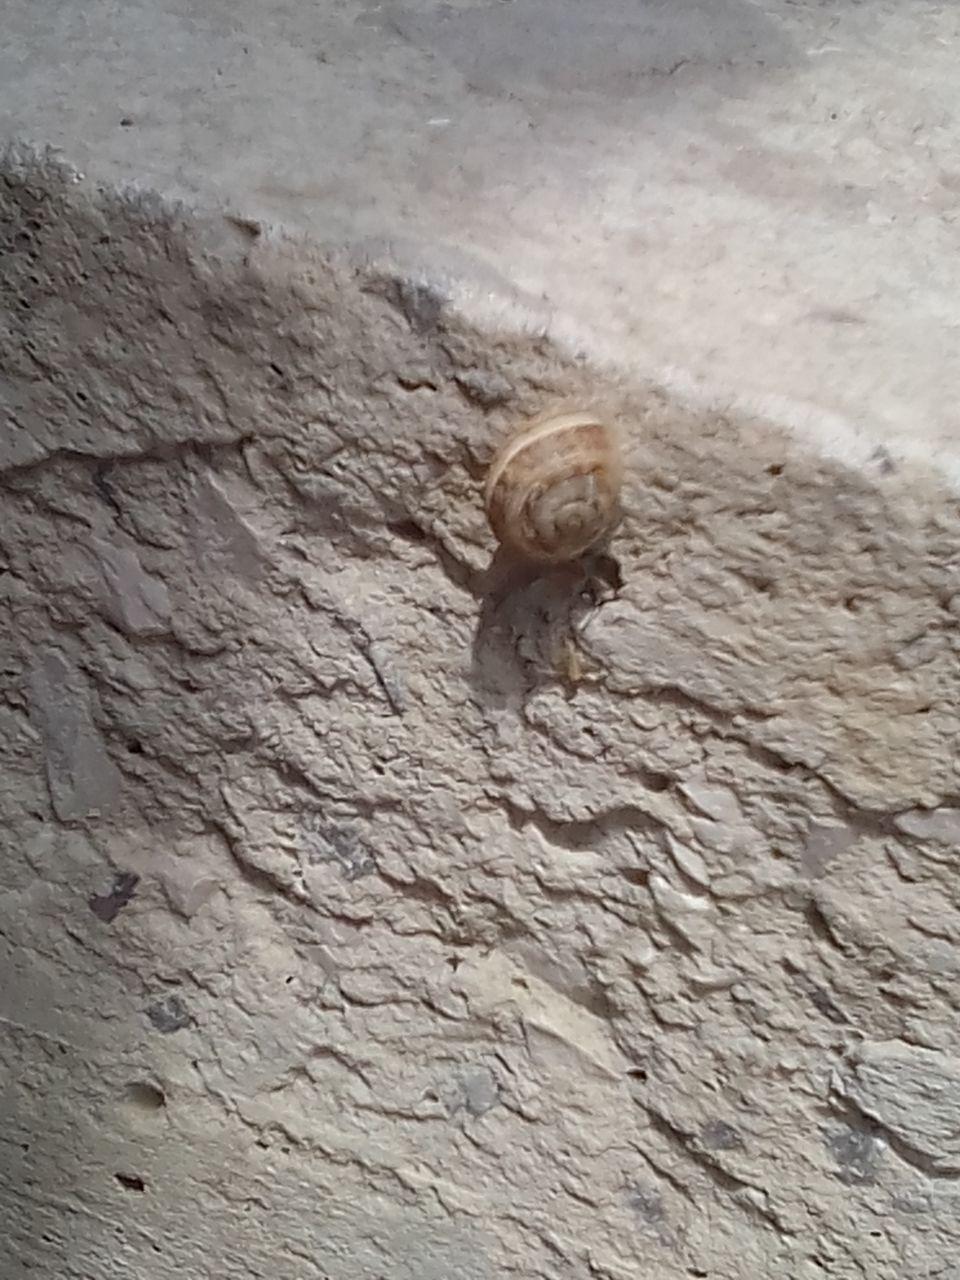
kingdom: Animalia
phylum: Mollusca
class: Gastropoda
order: Stylommatophora
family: Helicidae
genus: Eobania
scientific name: Eobania vermiculata
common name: Chocolateband snail
